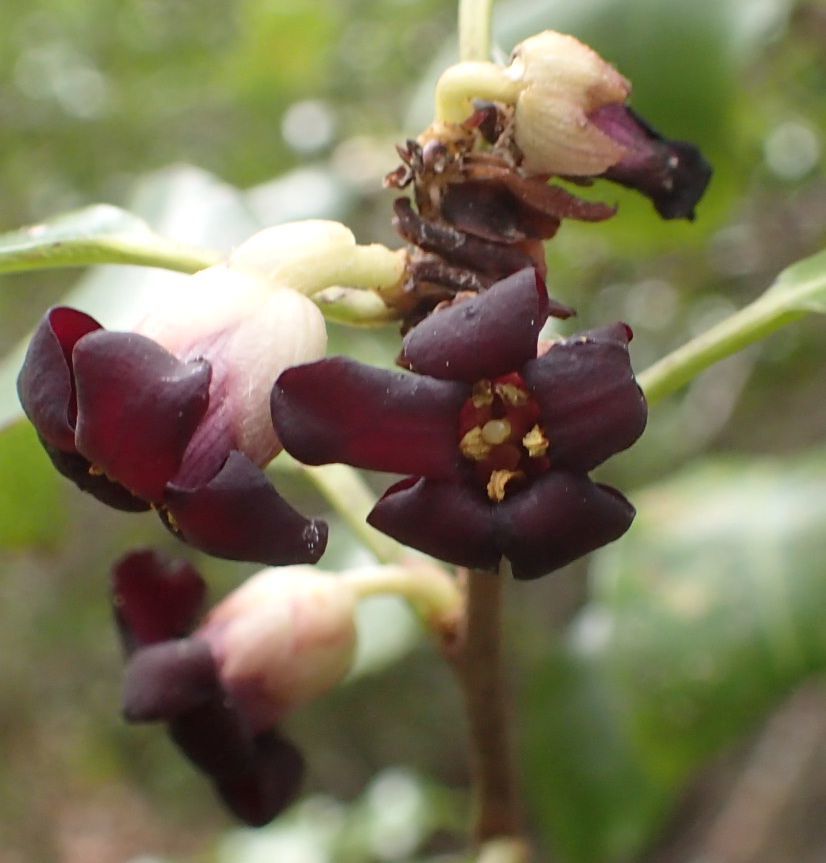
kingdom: Plantae
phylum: Tracheophyta
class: Magnoliopsida
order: Apiales
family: Pittosporaceae
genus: Pittosporum
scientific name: Pittosporum tenuifolium
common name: Kohuhu
